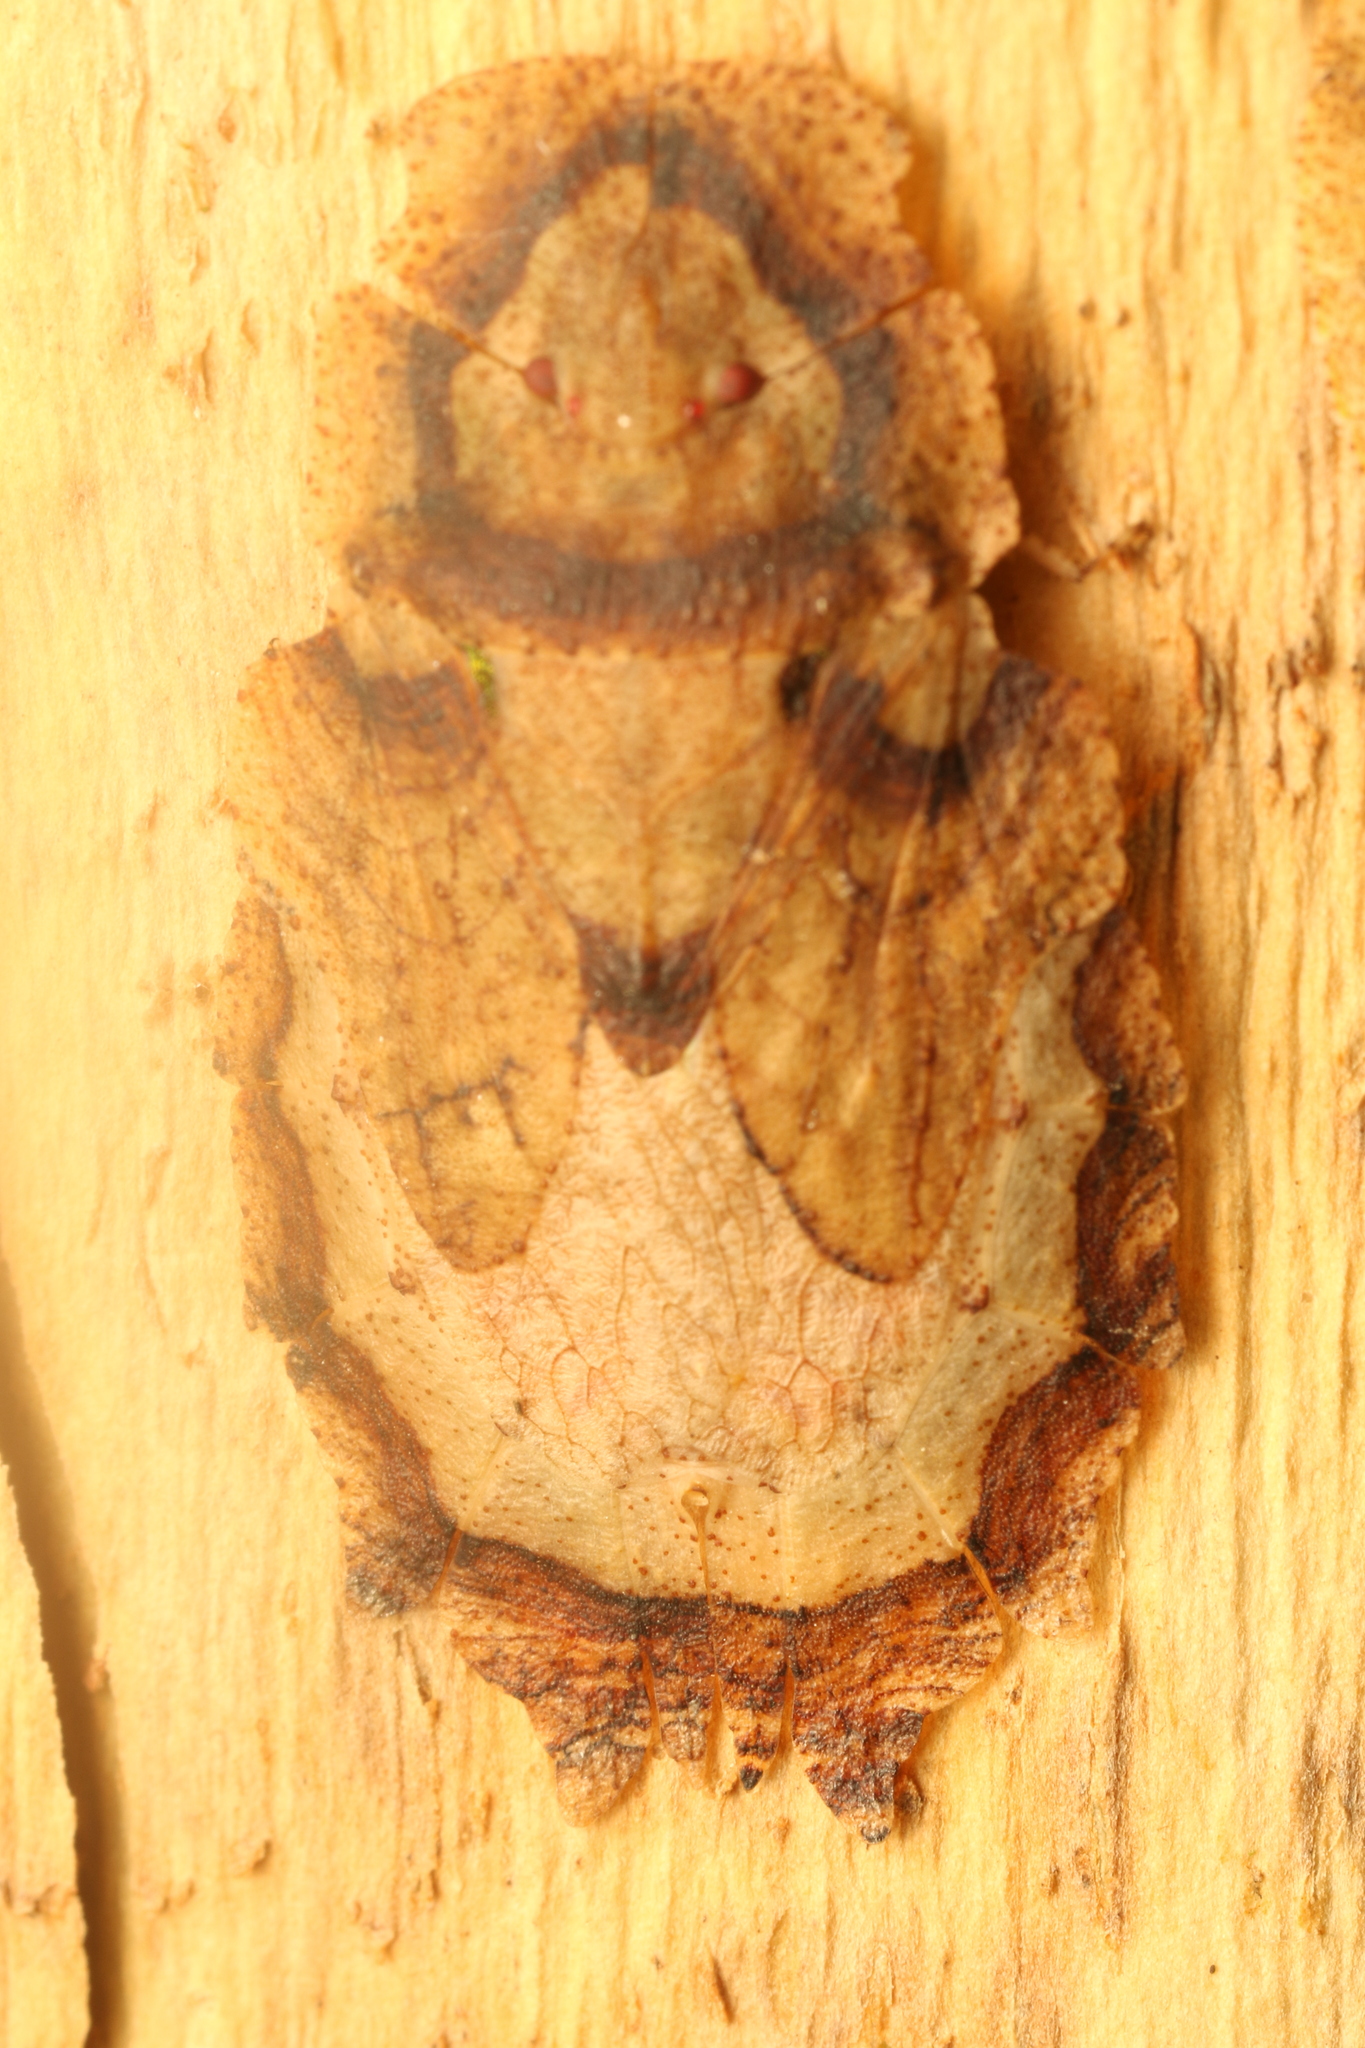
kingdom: Animalia
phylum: Arthropoda
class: Insecta
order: Hemiptera
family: Phleides
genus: Phloea
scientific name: Phloea
